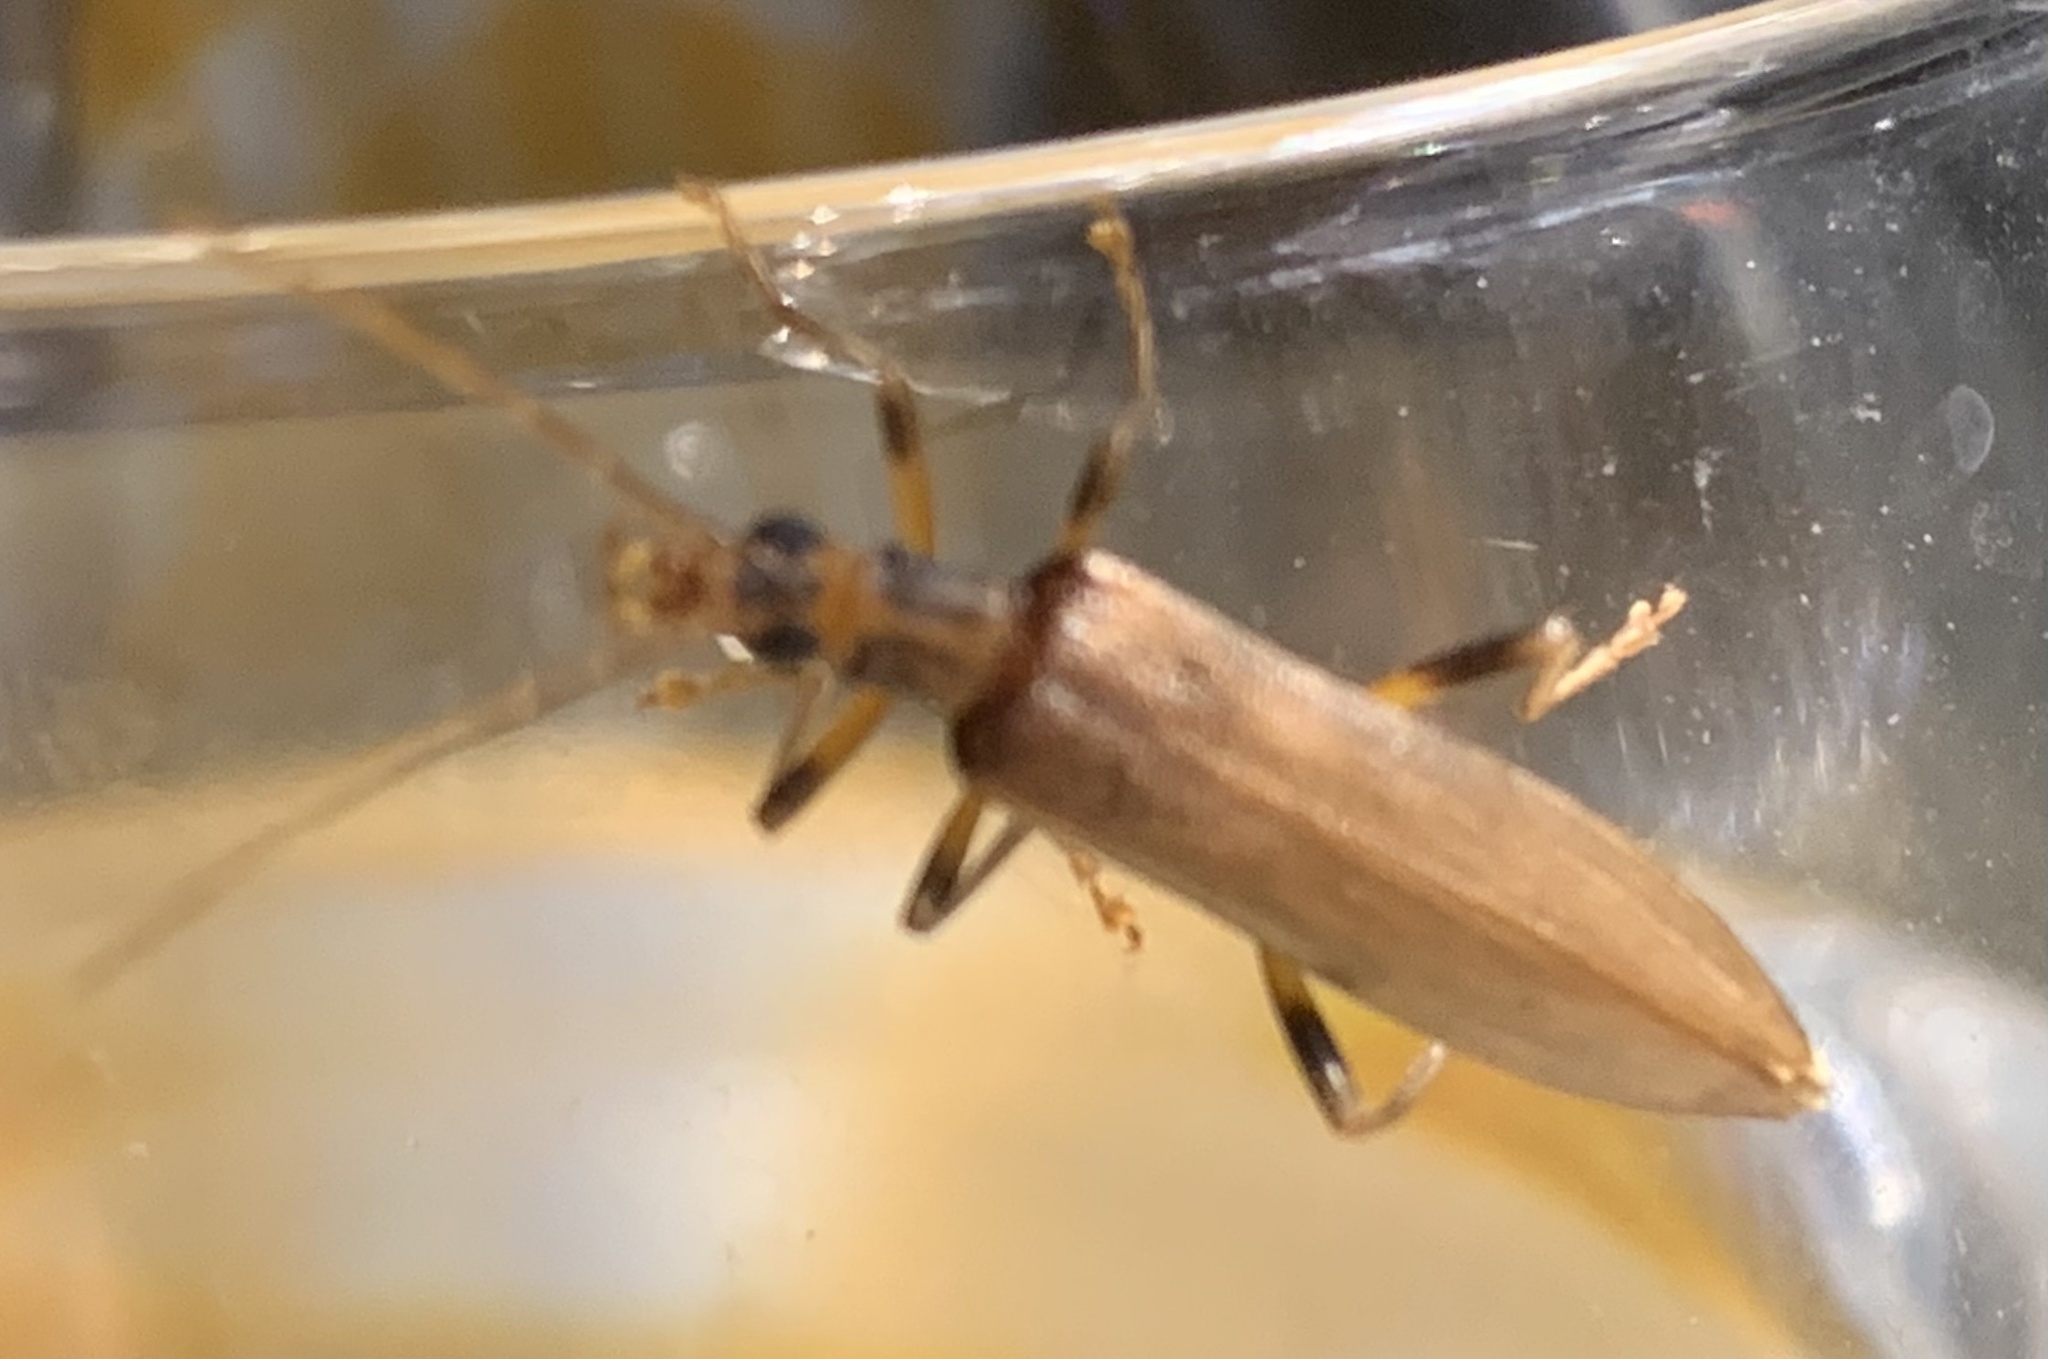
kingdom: Animalia
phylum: Arthropoda
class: Insecta
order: Coleoptera
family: Oedemeridae
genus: Oedemera
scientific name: Oedemera femoralis
